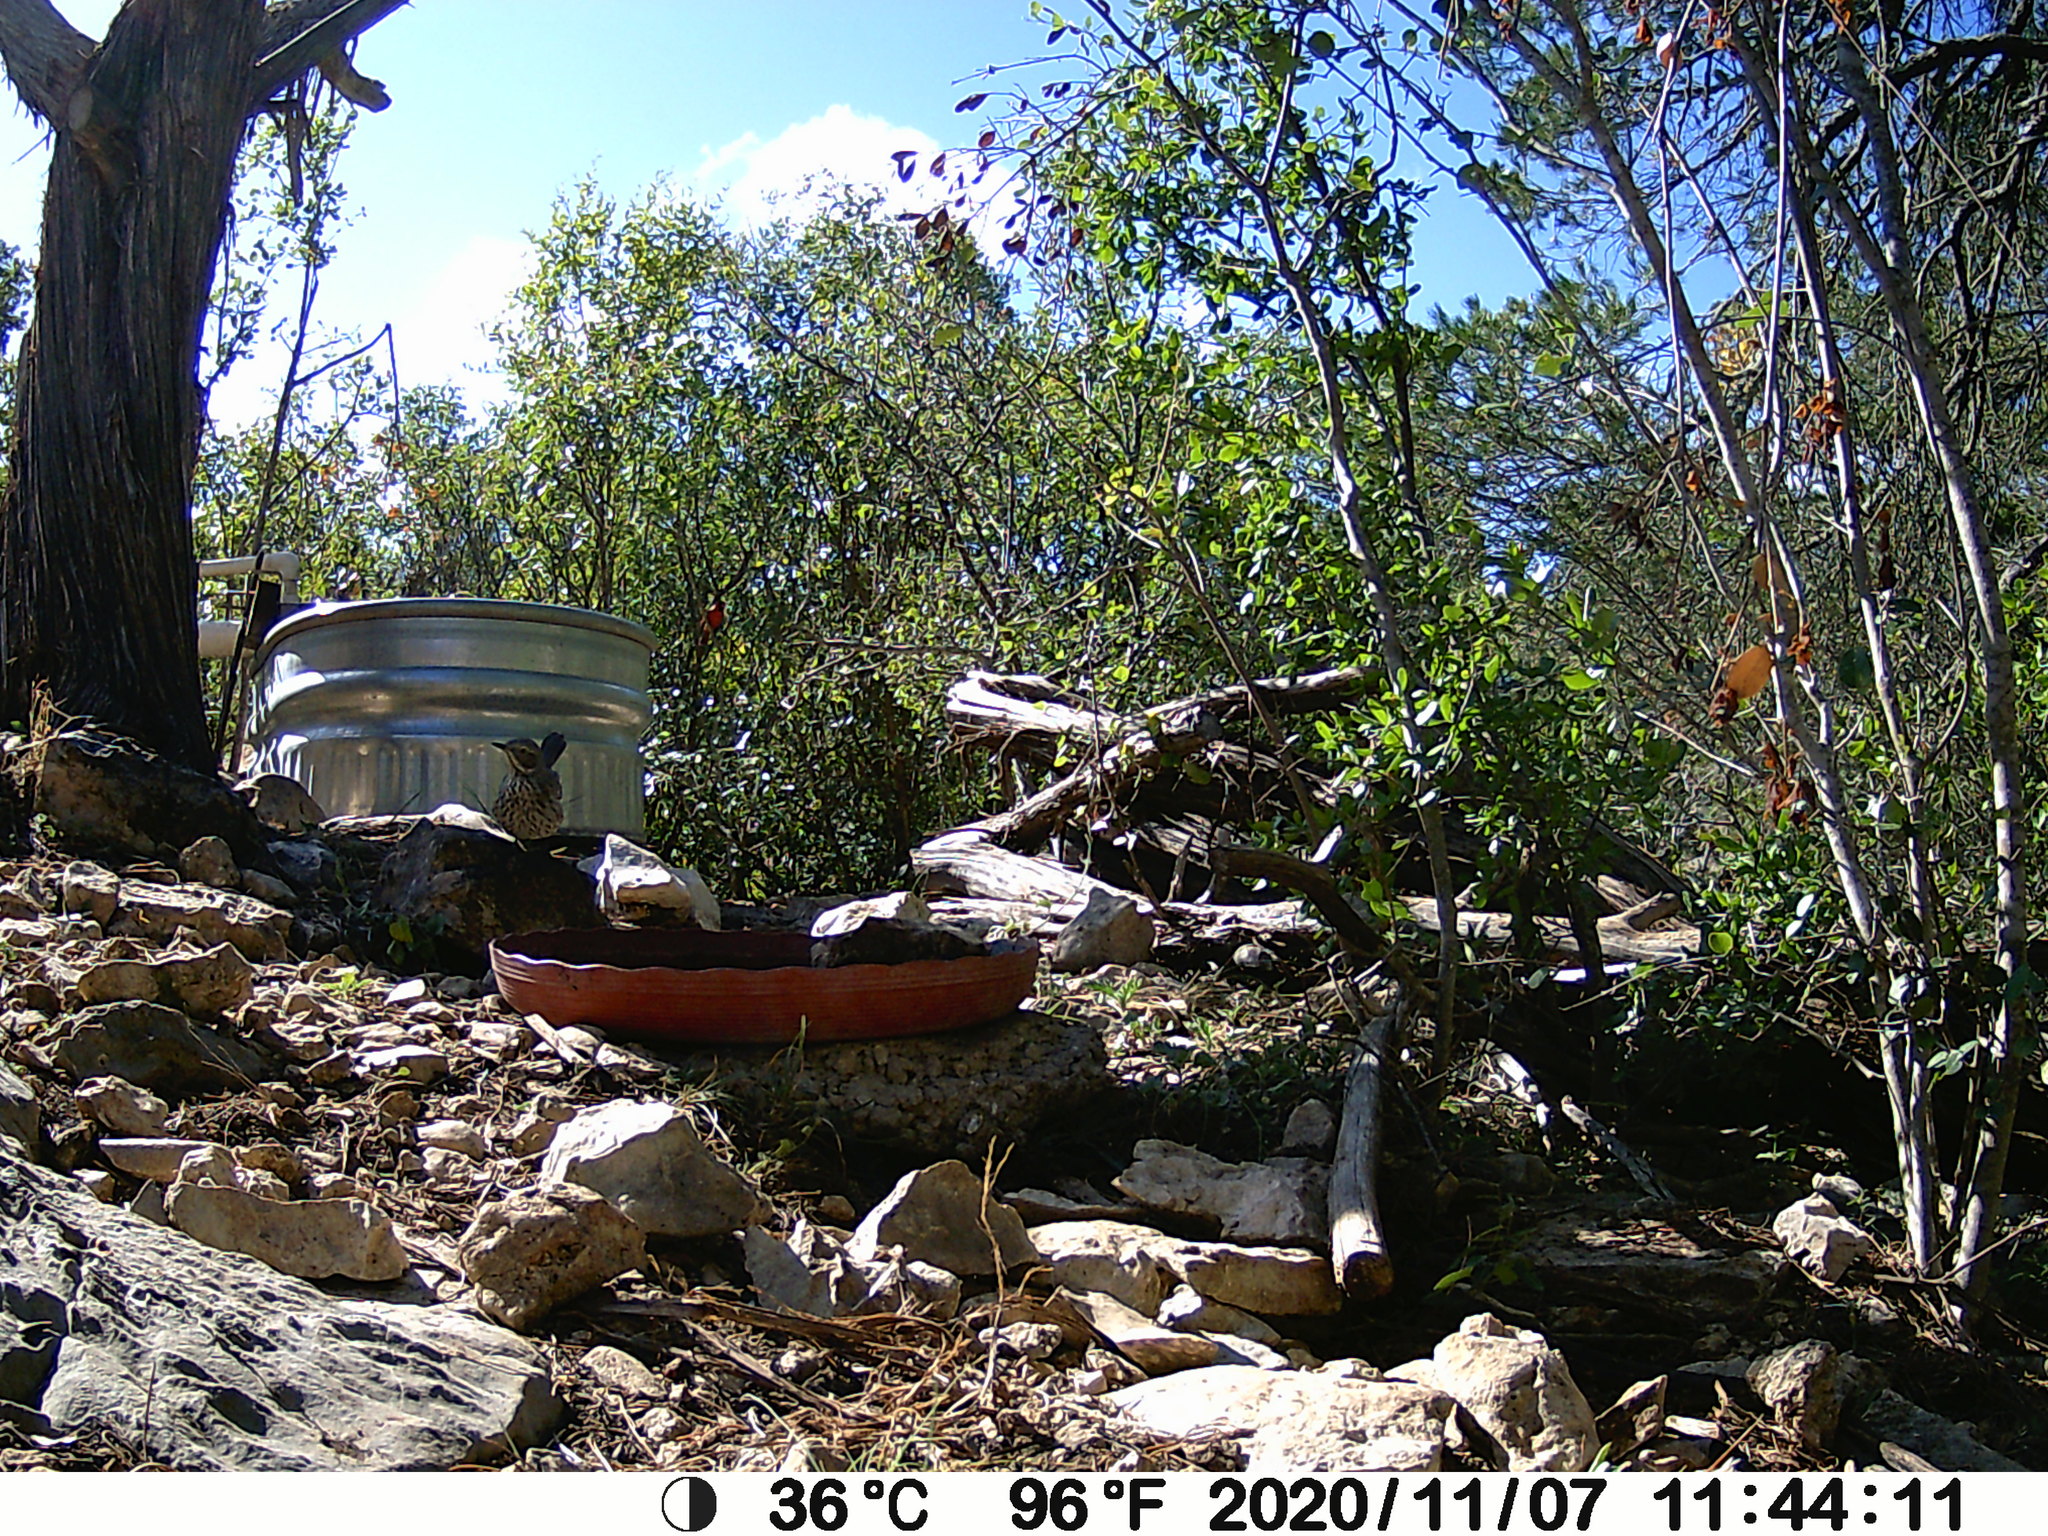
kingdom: Animalia
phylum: Chordata
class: Aves
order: Passeriformes
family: Mimidae
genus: Oreoscoptes
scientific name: Oreoscoptes montanus
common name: Sage thrasher
